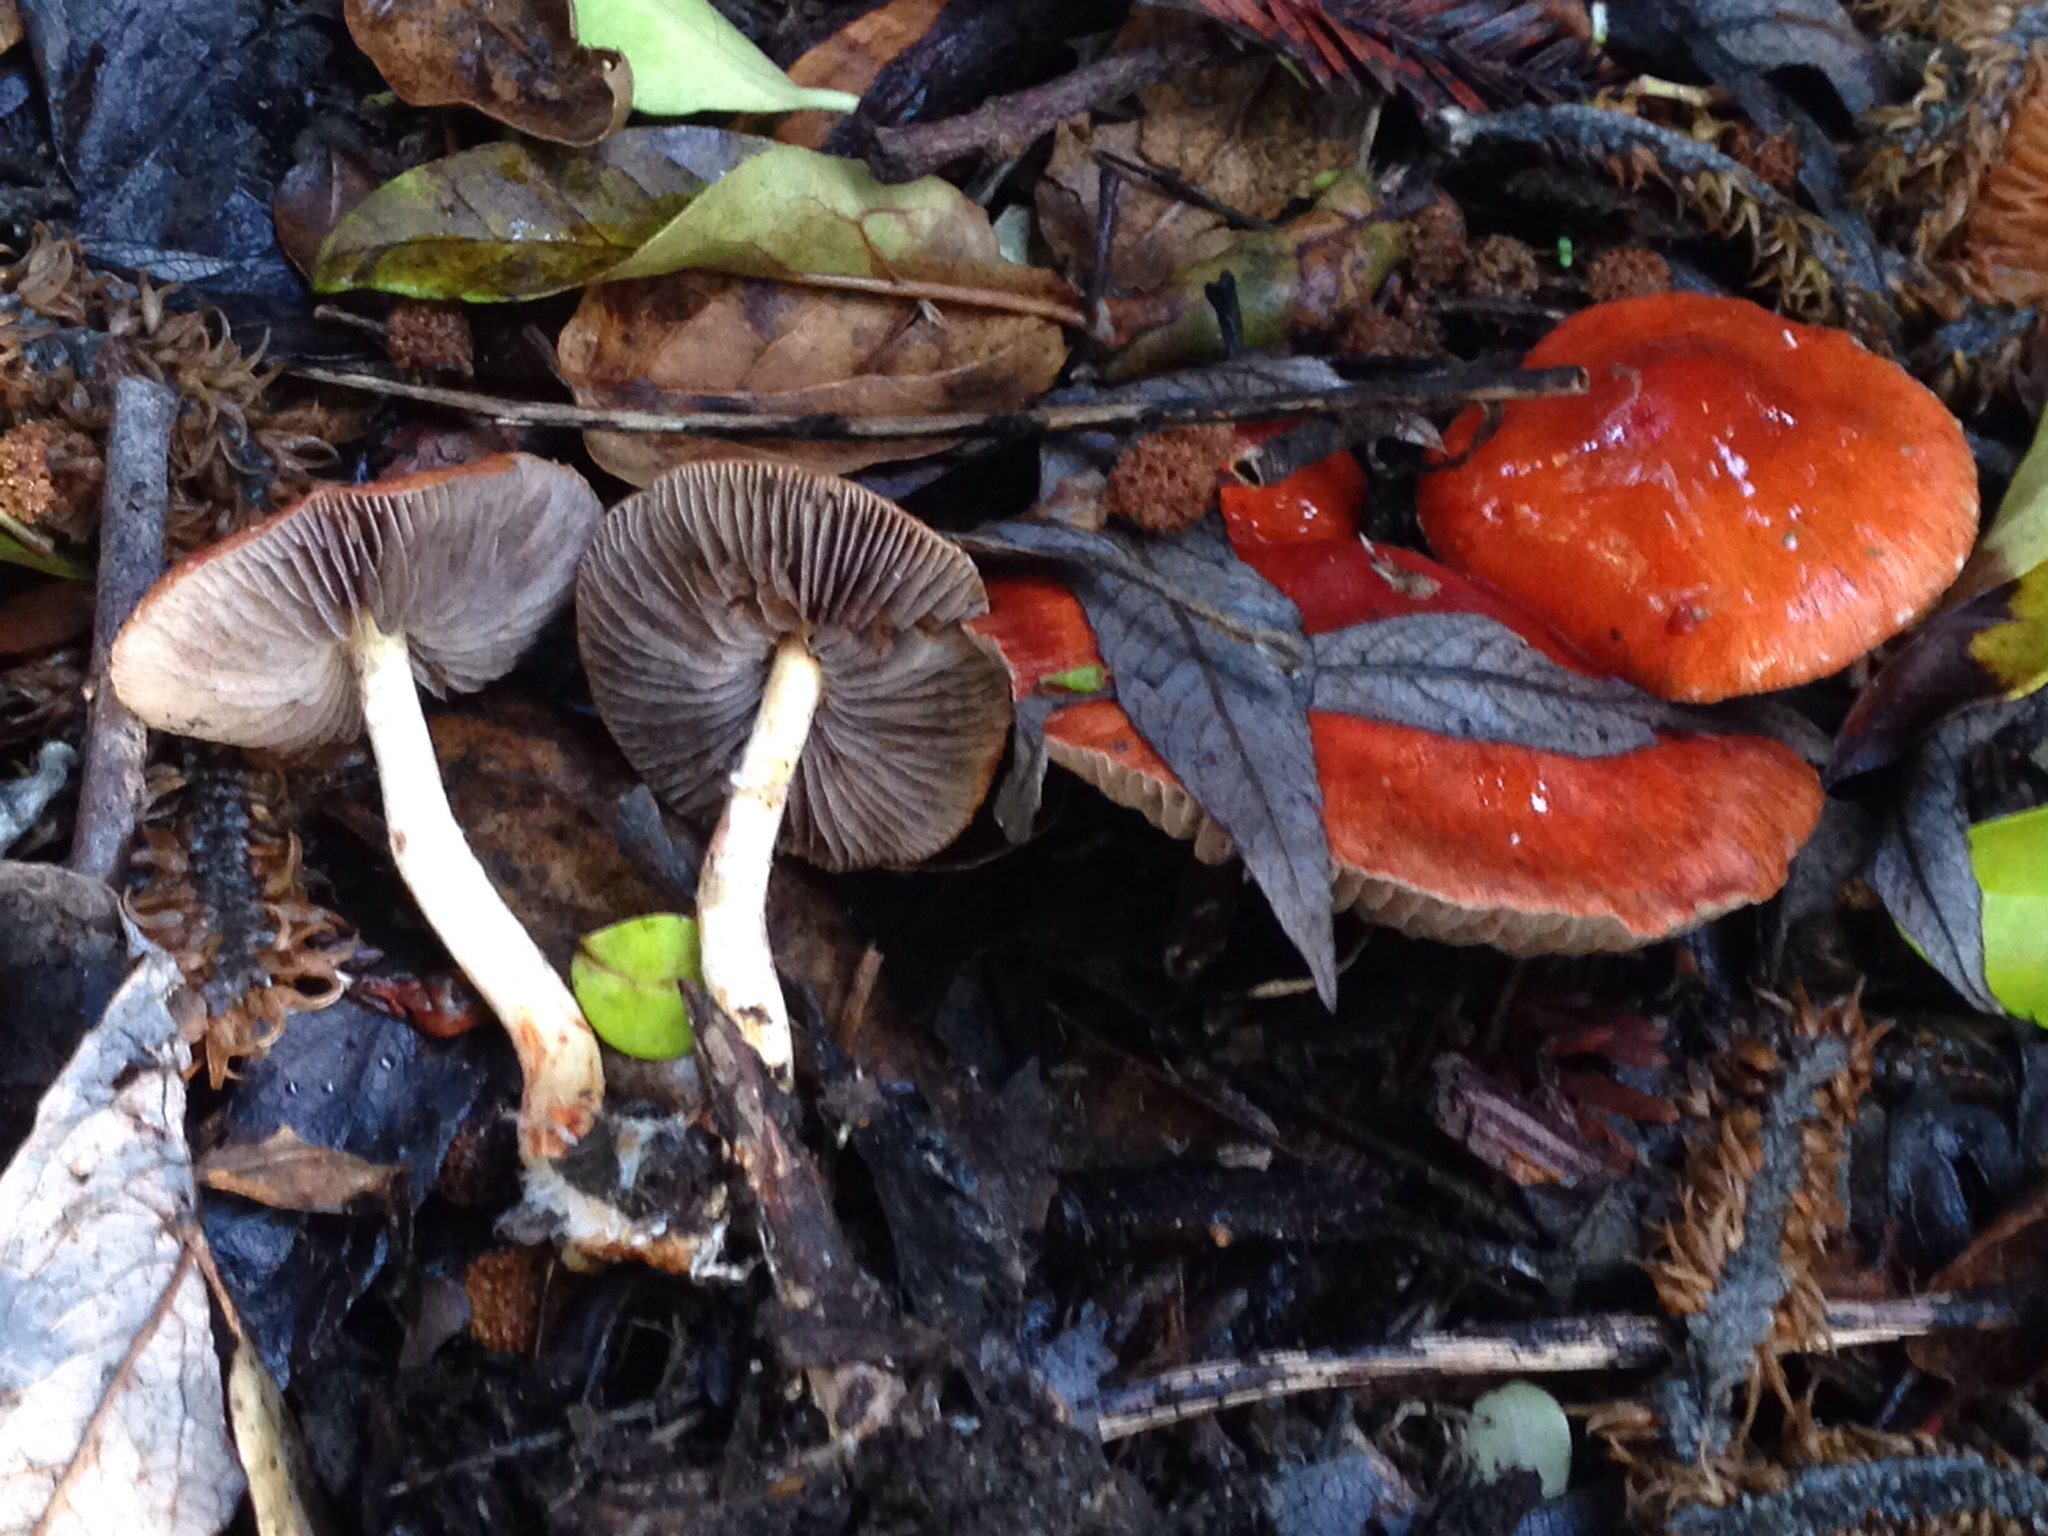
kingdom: Fungi
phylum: Basidiomycota
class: Agaricomycetes
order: Agaricales
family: Strophariaceae
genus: Leratiomyces
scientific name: Leratiomyces ceres
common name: Redlead roundhead
